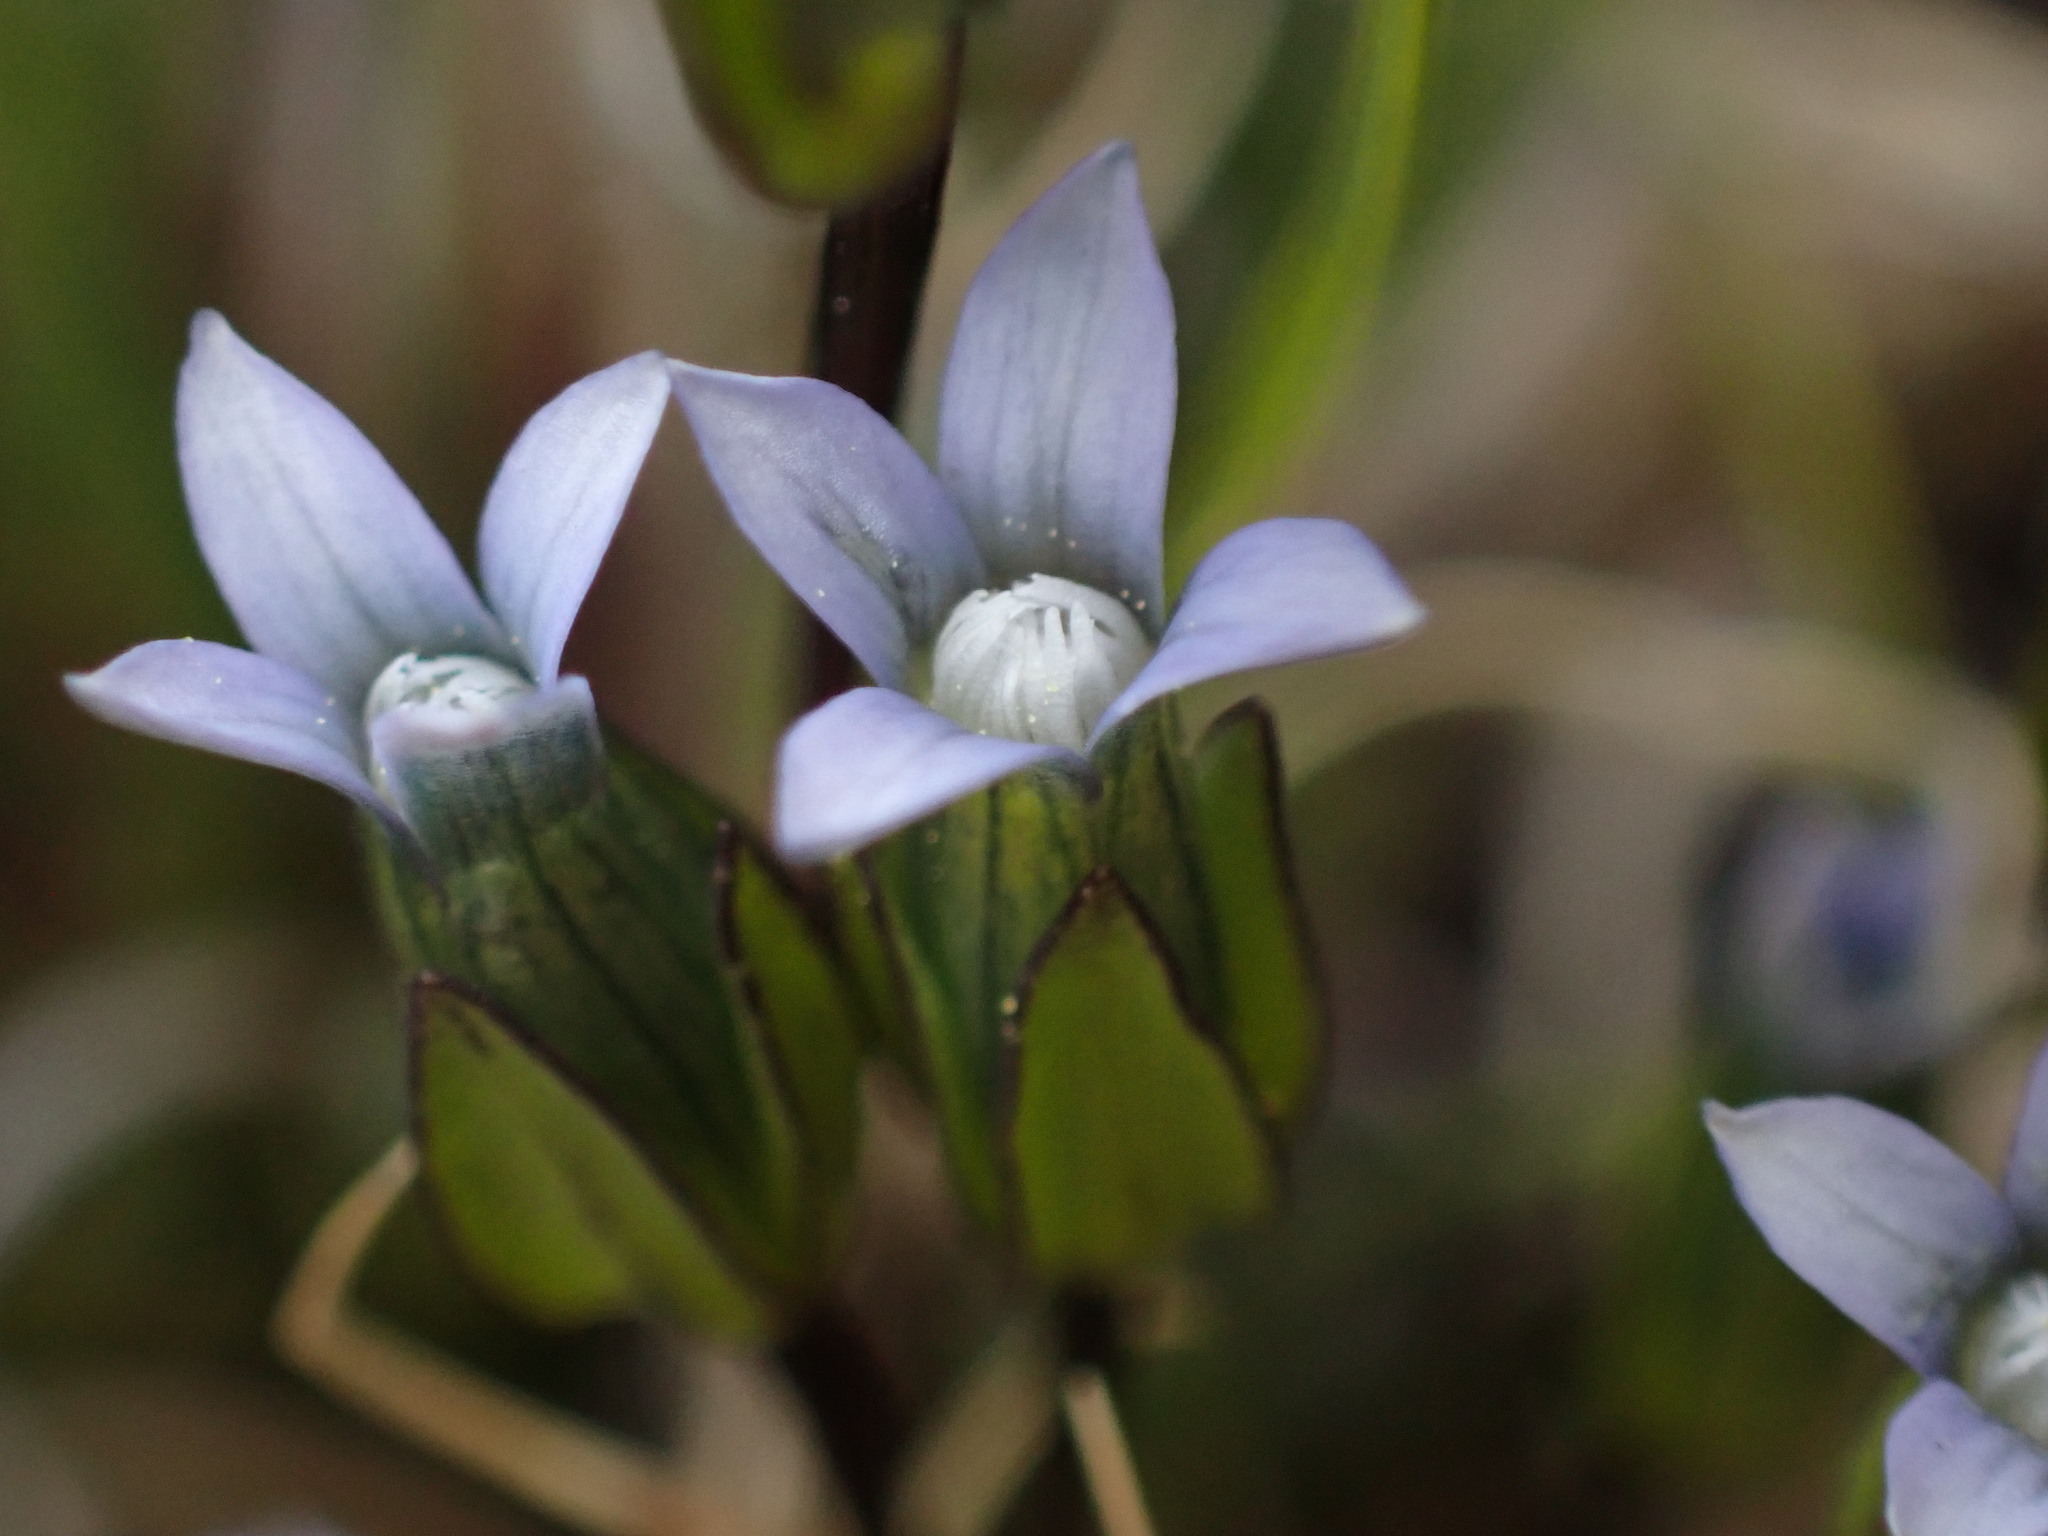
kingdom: Plantae
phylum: Tracheophyta
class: Magnoliopsida
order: Gentianales
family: Gentianaceae
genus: Comastoma
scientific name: Comastoma tenellum
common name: Dane's dwarf gentian
